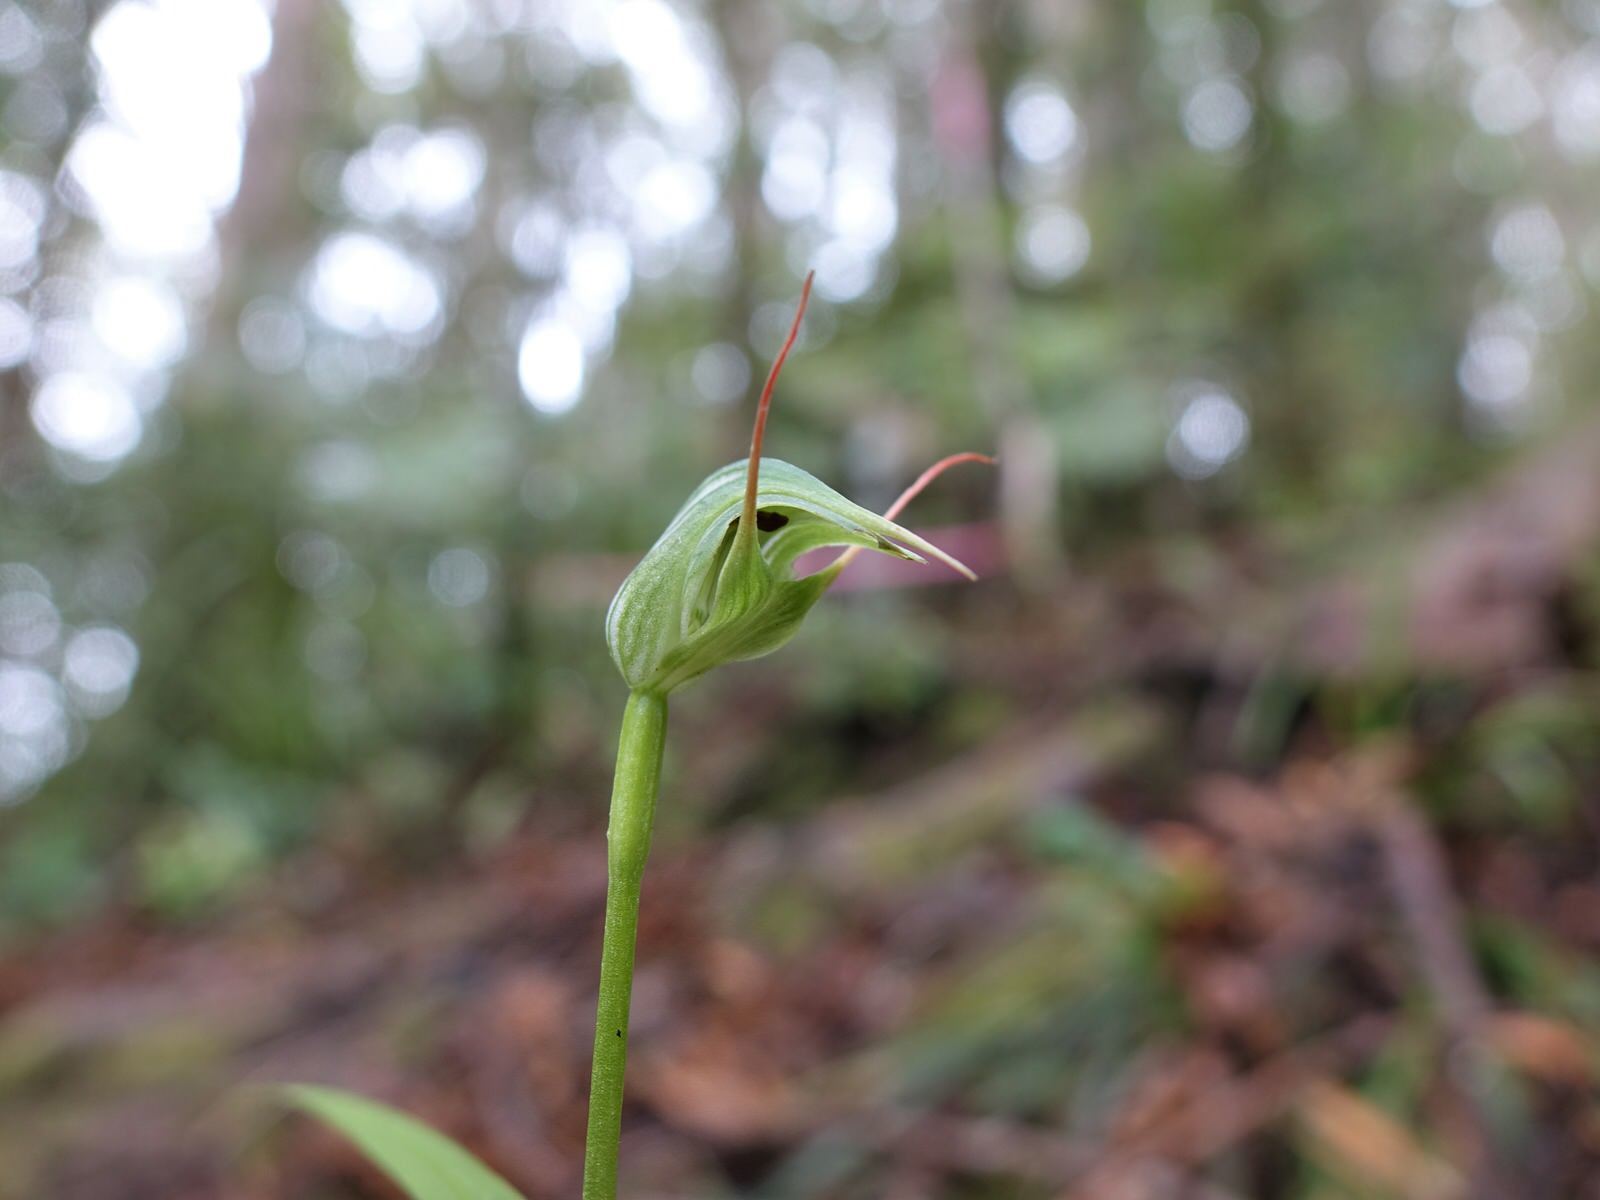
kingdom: Plantae
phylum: Tracheophyta
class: Liliopsida
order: Asparagales
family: Orchidaceae
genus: Pterostylis
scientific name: Pterostylis agathicola
